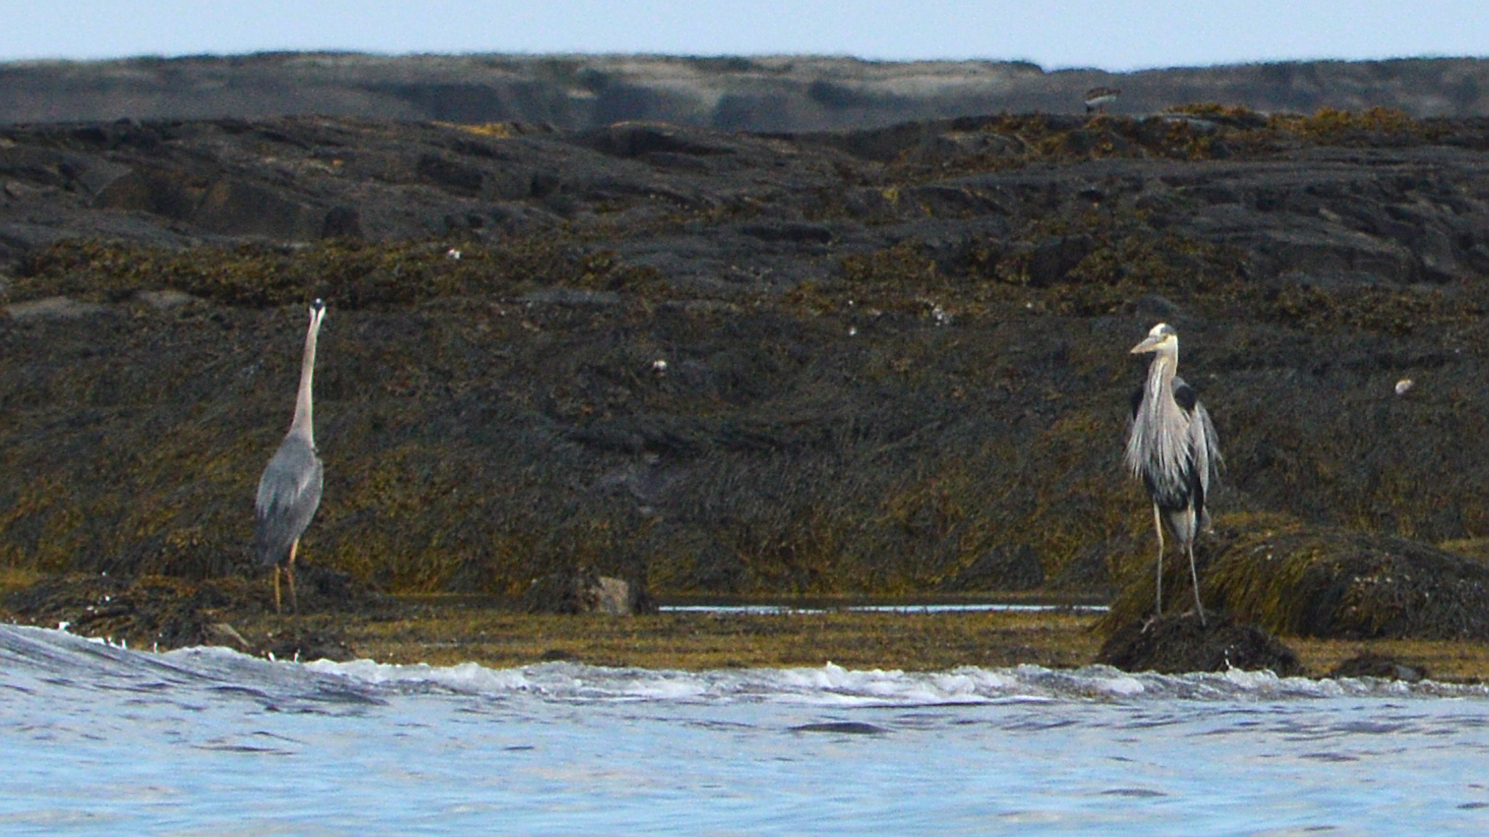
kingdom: Animalia
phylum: Chordata
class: Aves
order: Pelecaniformes
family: Ardeidae
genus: Ardea
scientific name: Ardea herodias
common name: Great blue heron
